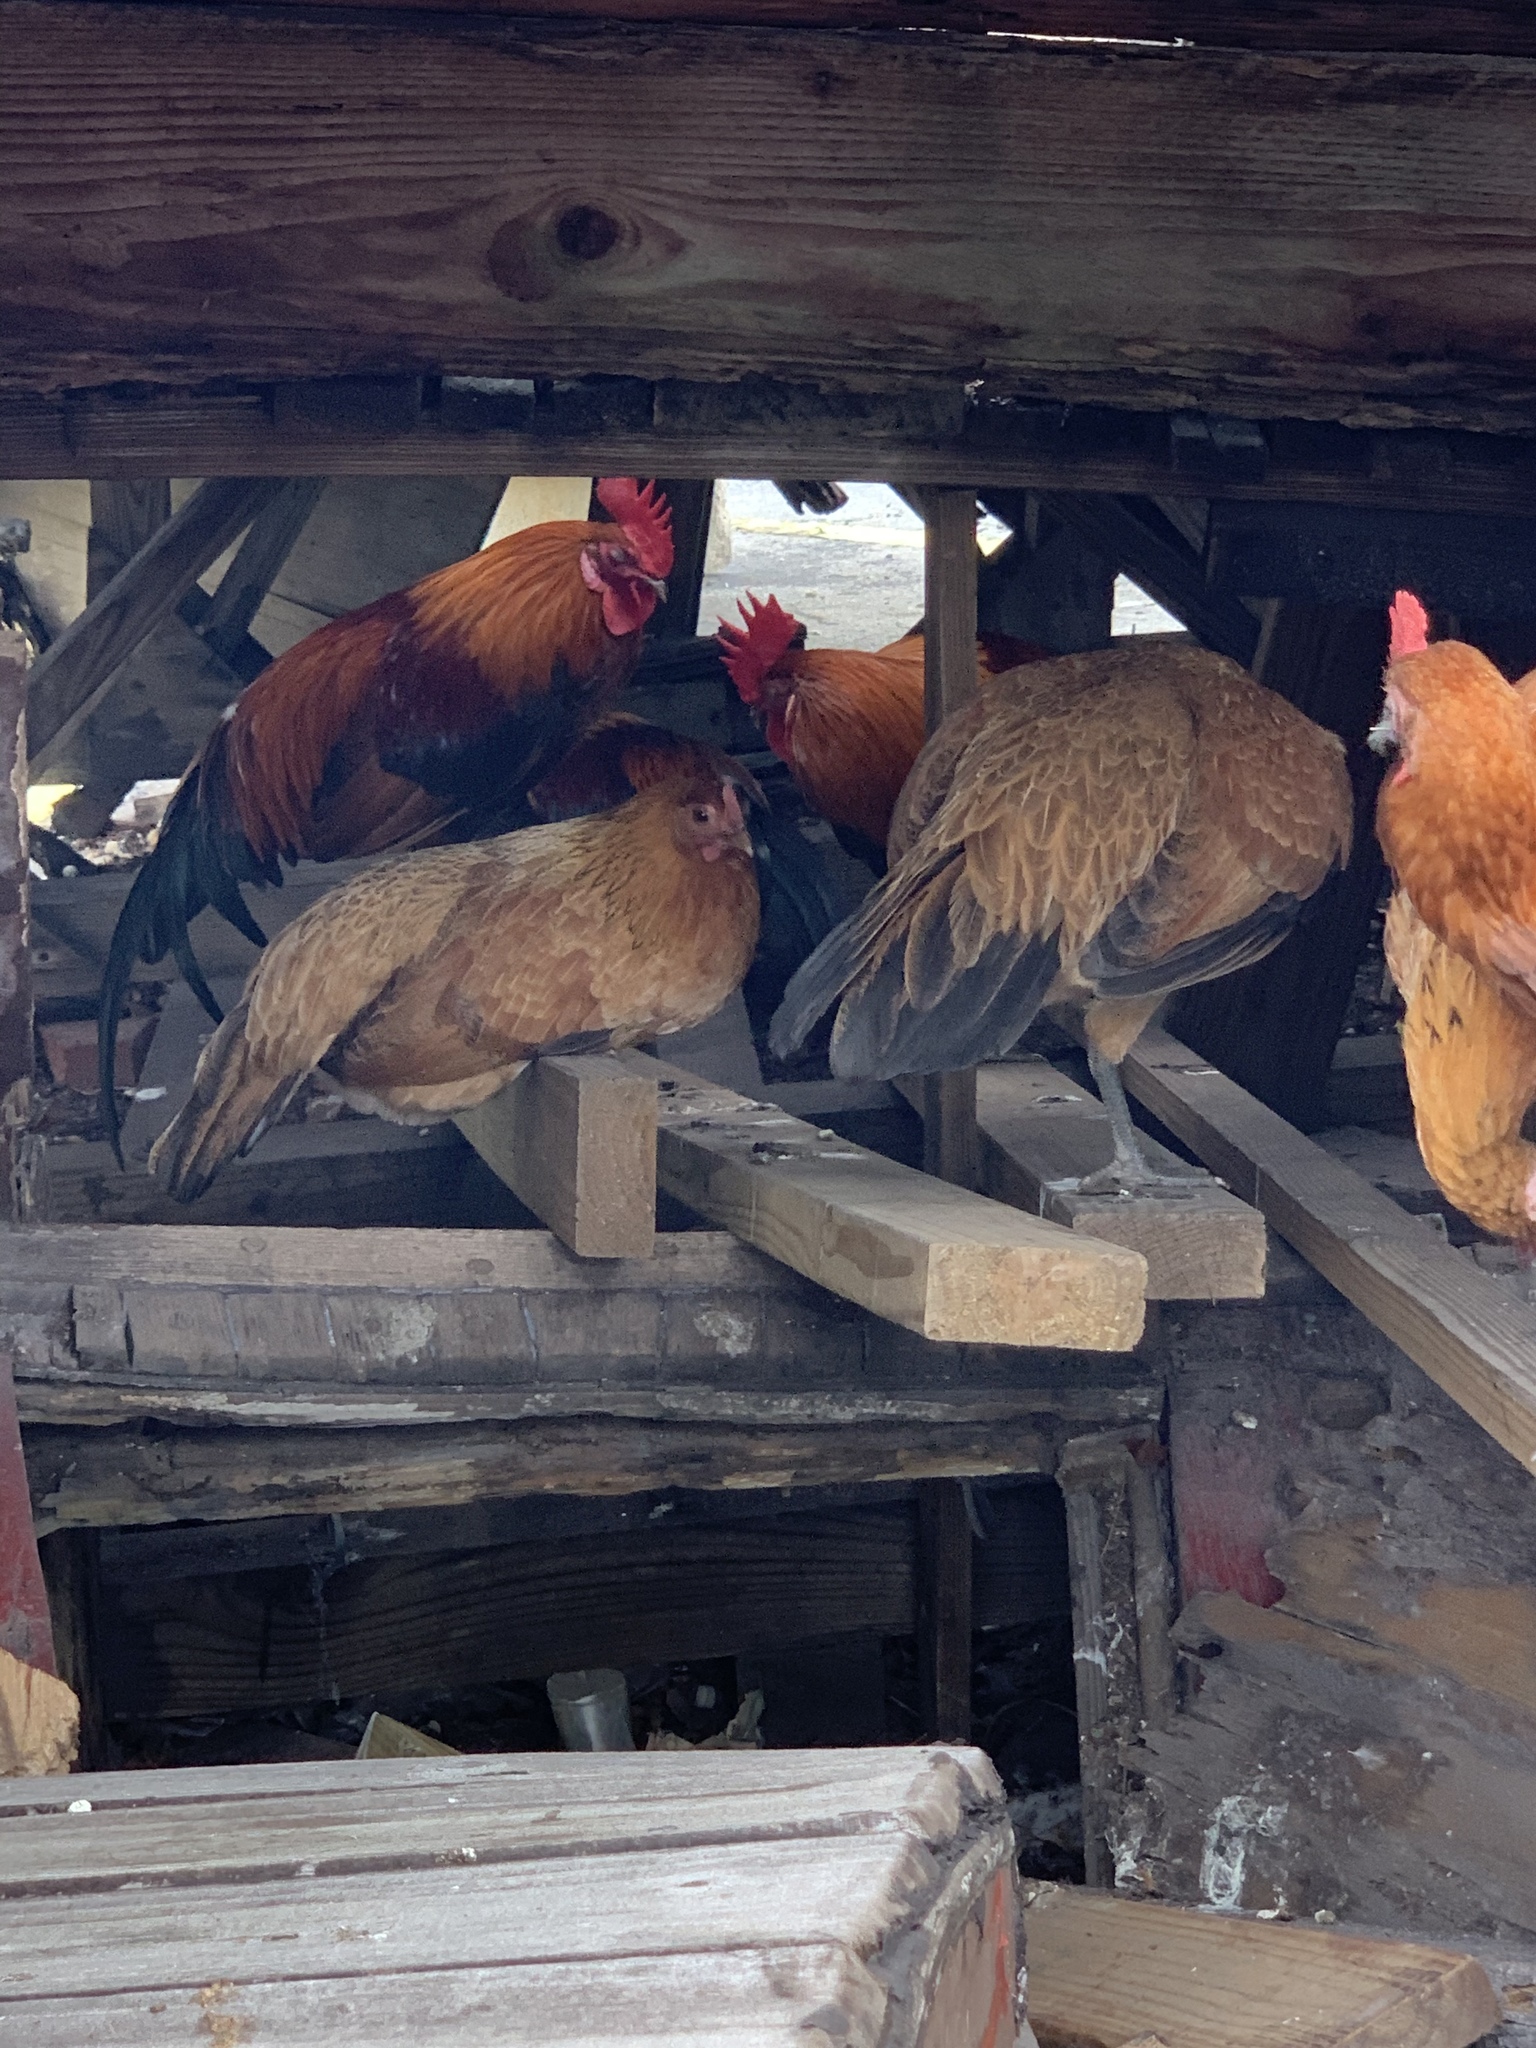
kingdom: Animalia
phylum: Chordata
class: Aves
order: Galliformes
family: Phasianidae
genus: Gallus
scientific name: Gallus gallus
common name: Red junglefowl
